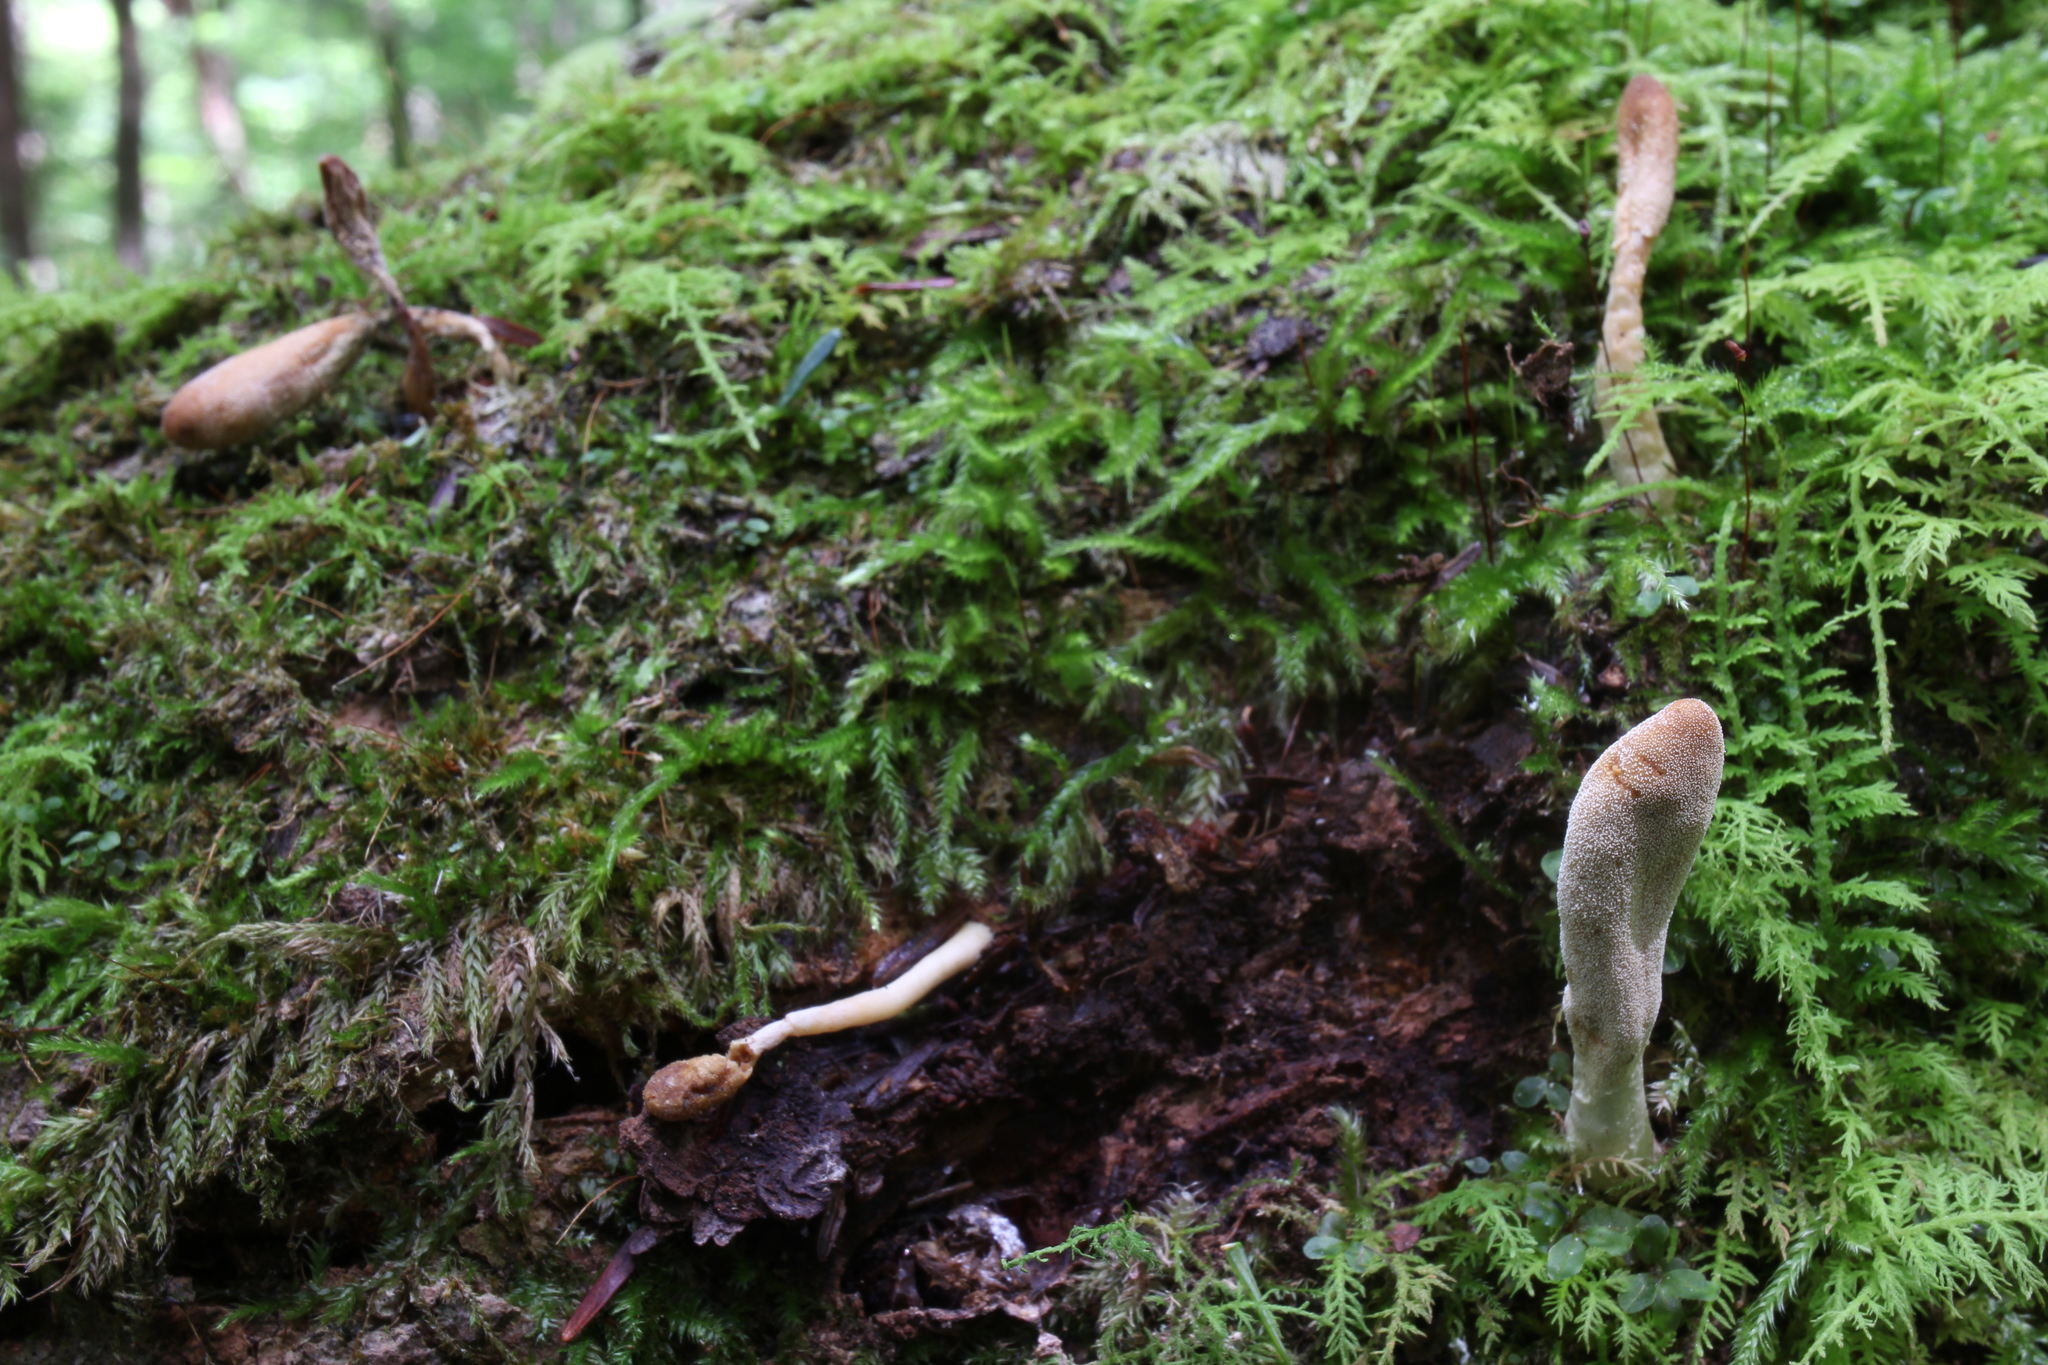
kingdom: Fungi
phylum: Ascomycota
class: Sordariomycetes
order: Hypocreales
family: Hypocreaceae
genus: Trichoderma
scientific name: Trichoderma alutaceum
